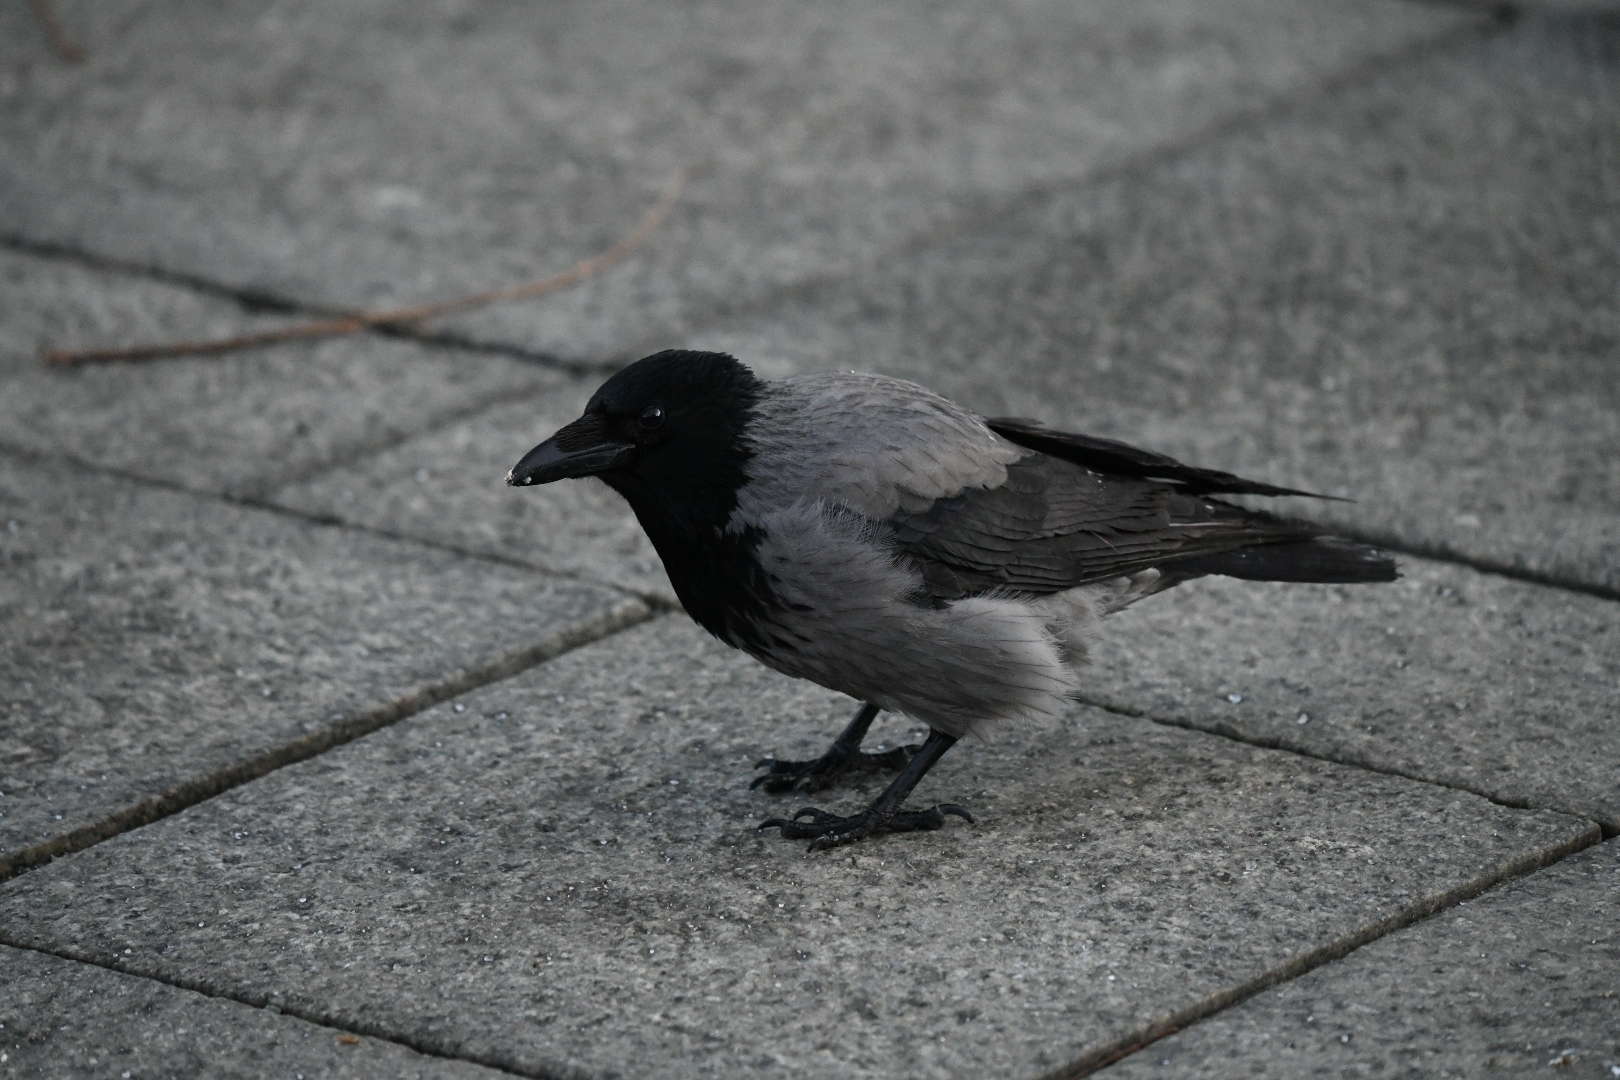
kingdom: Animalia
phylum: Chordata
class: Aves
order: Passeriformes
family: Corvidae
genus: Corvus
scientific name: Corvus cornix
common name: Hooded crow
